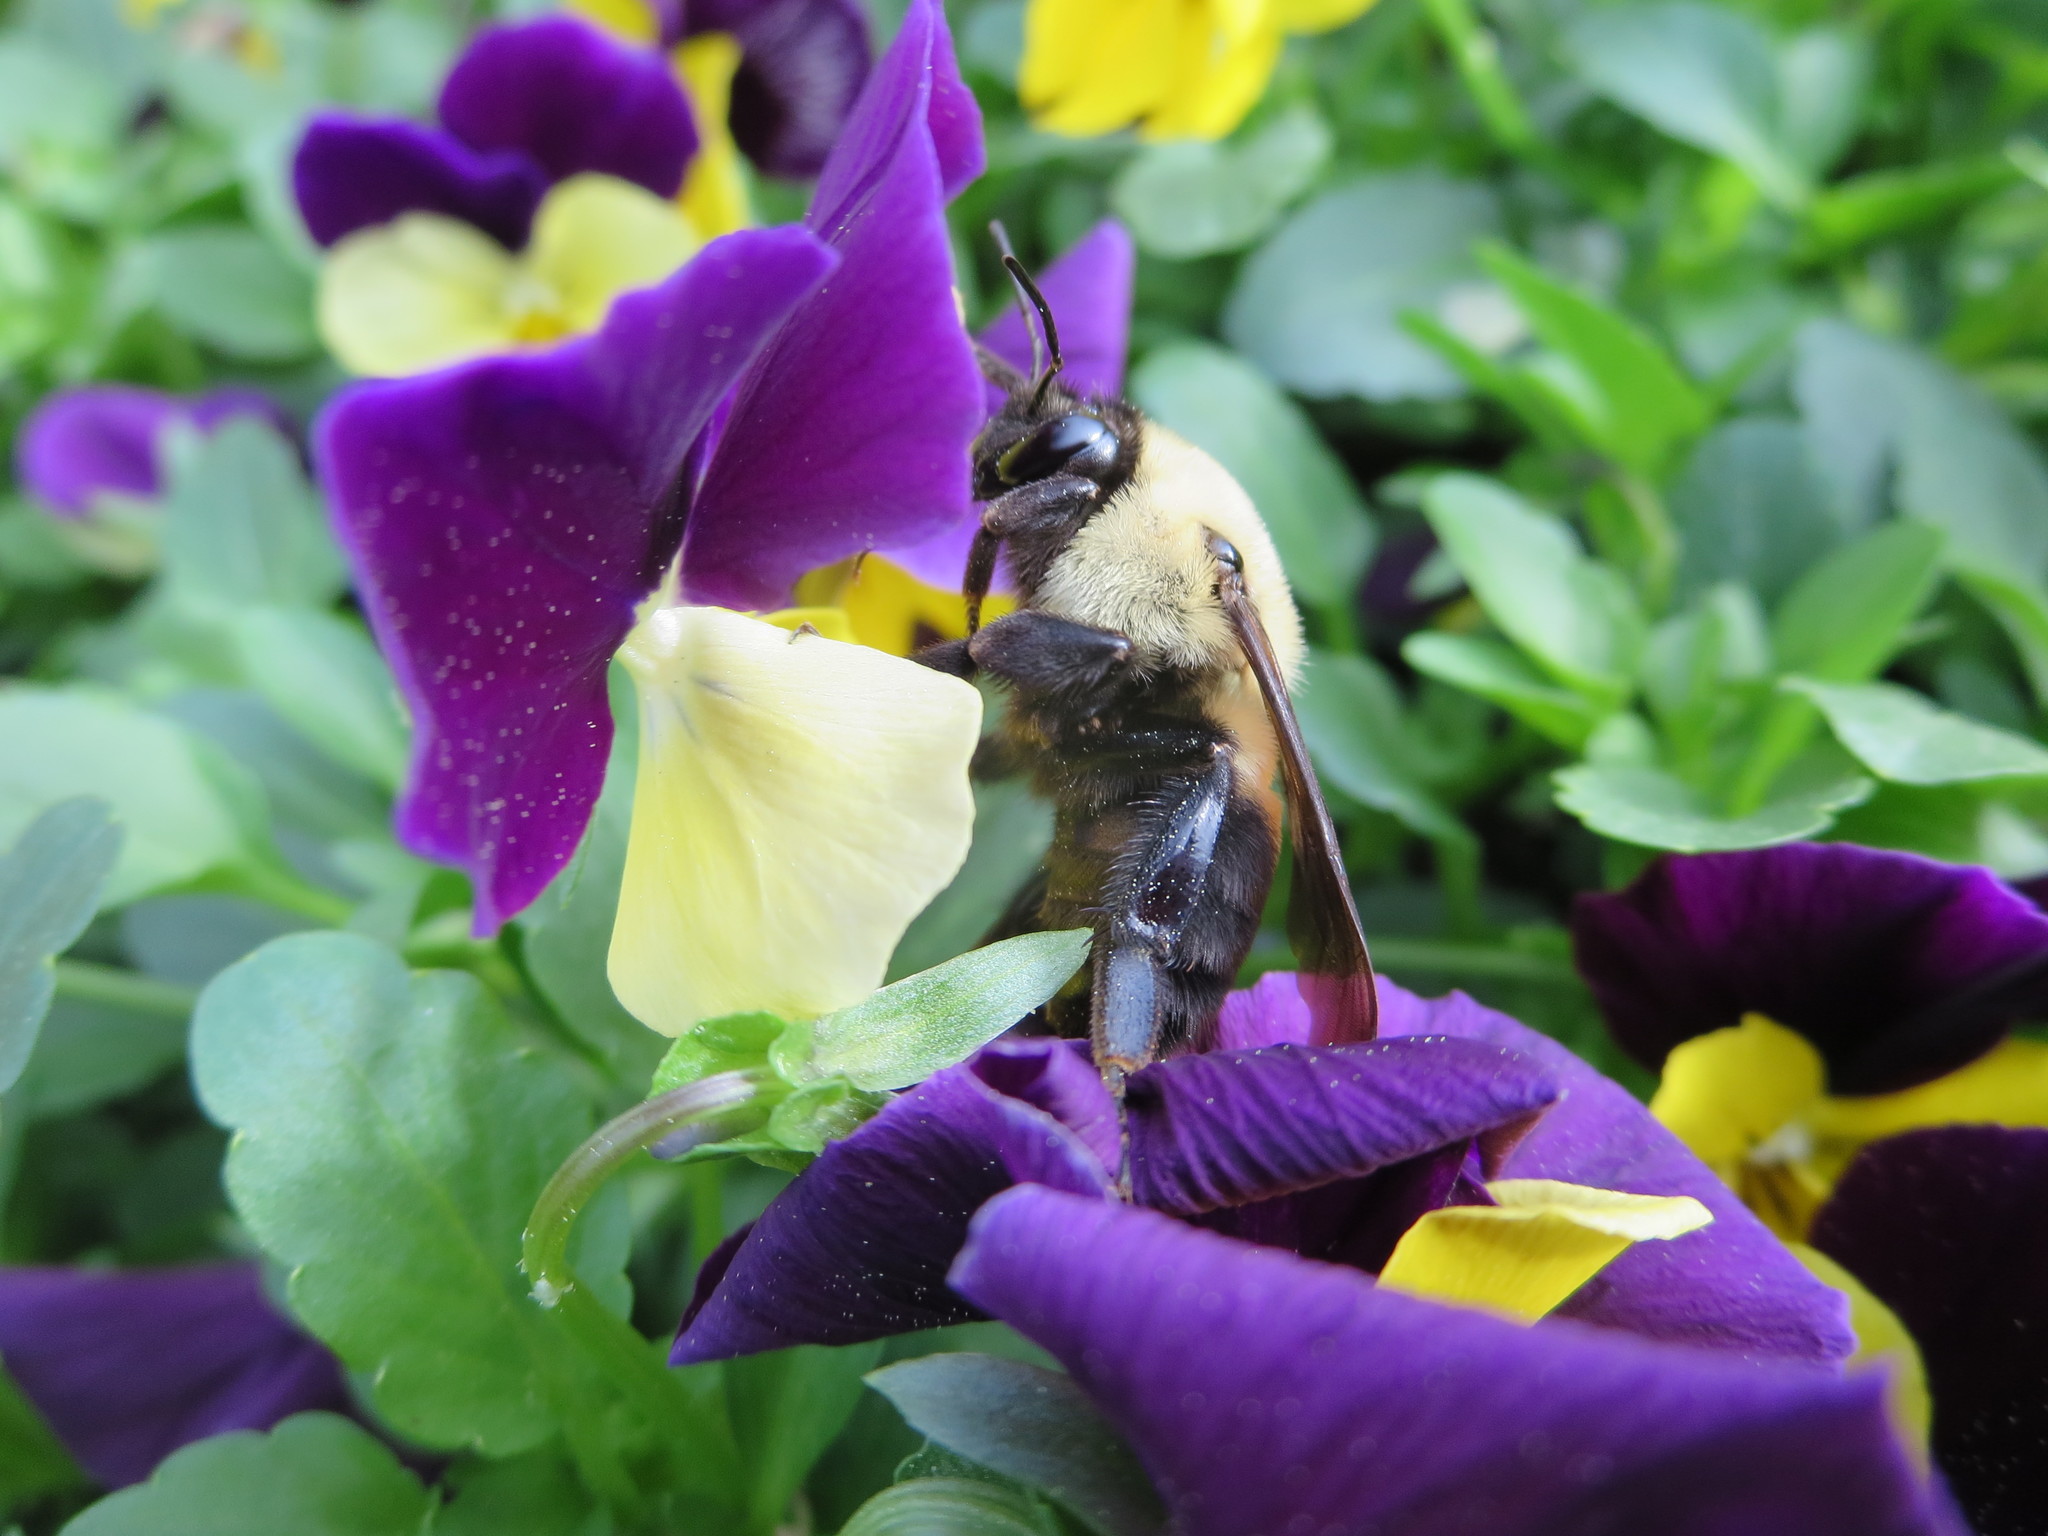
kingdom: Animalia
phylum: Arthropoda
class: Insecta
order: Hymenoptera
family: Apidae
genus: Bombus
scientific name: Bombus griseocollis
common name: Brown-belted bumble bee
